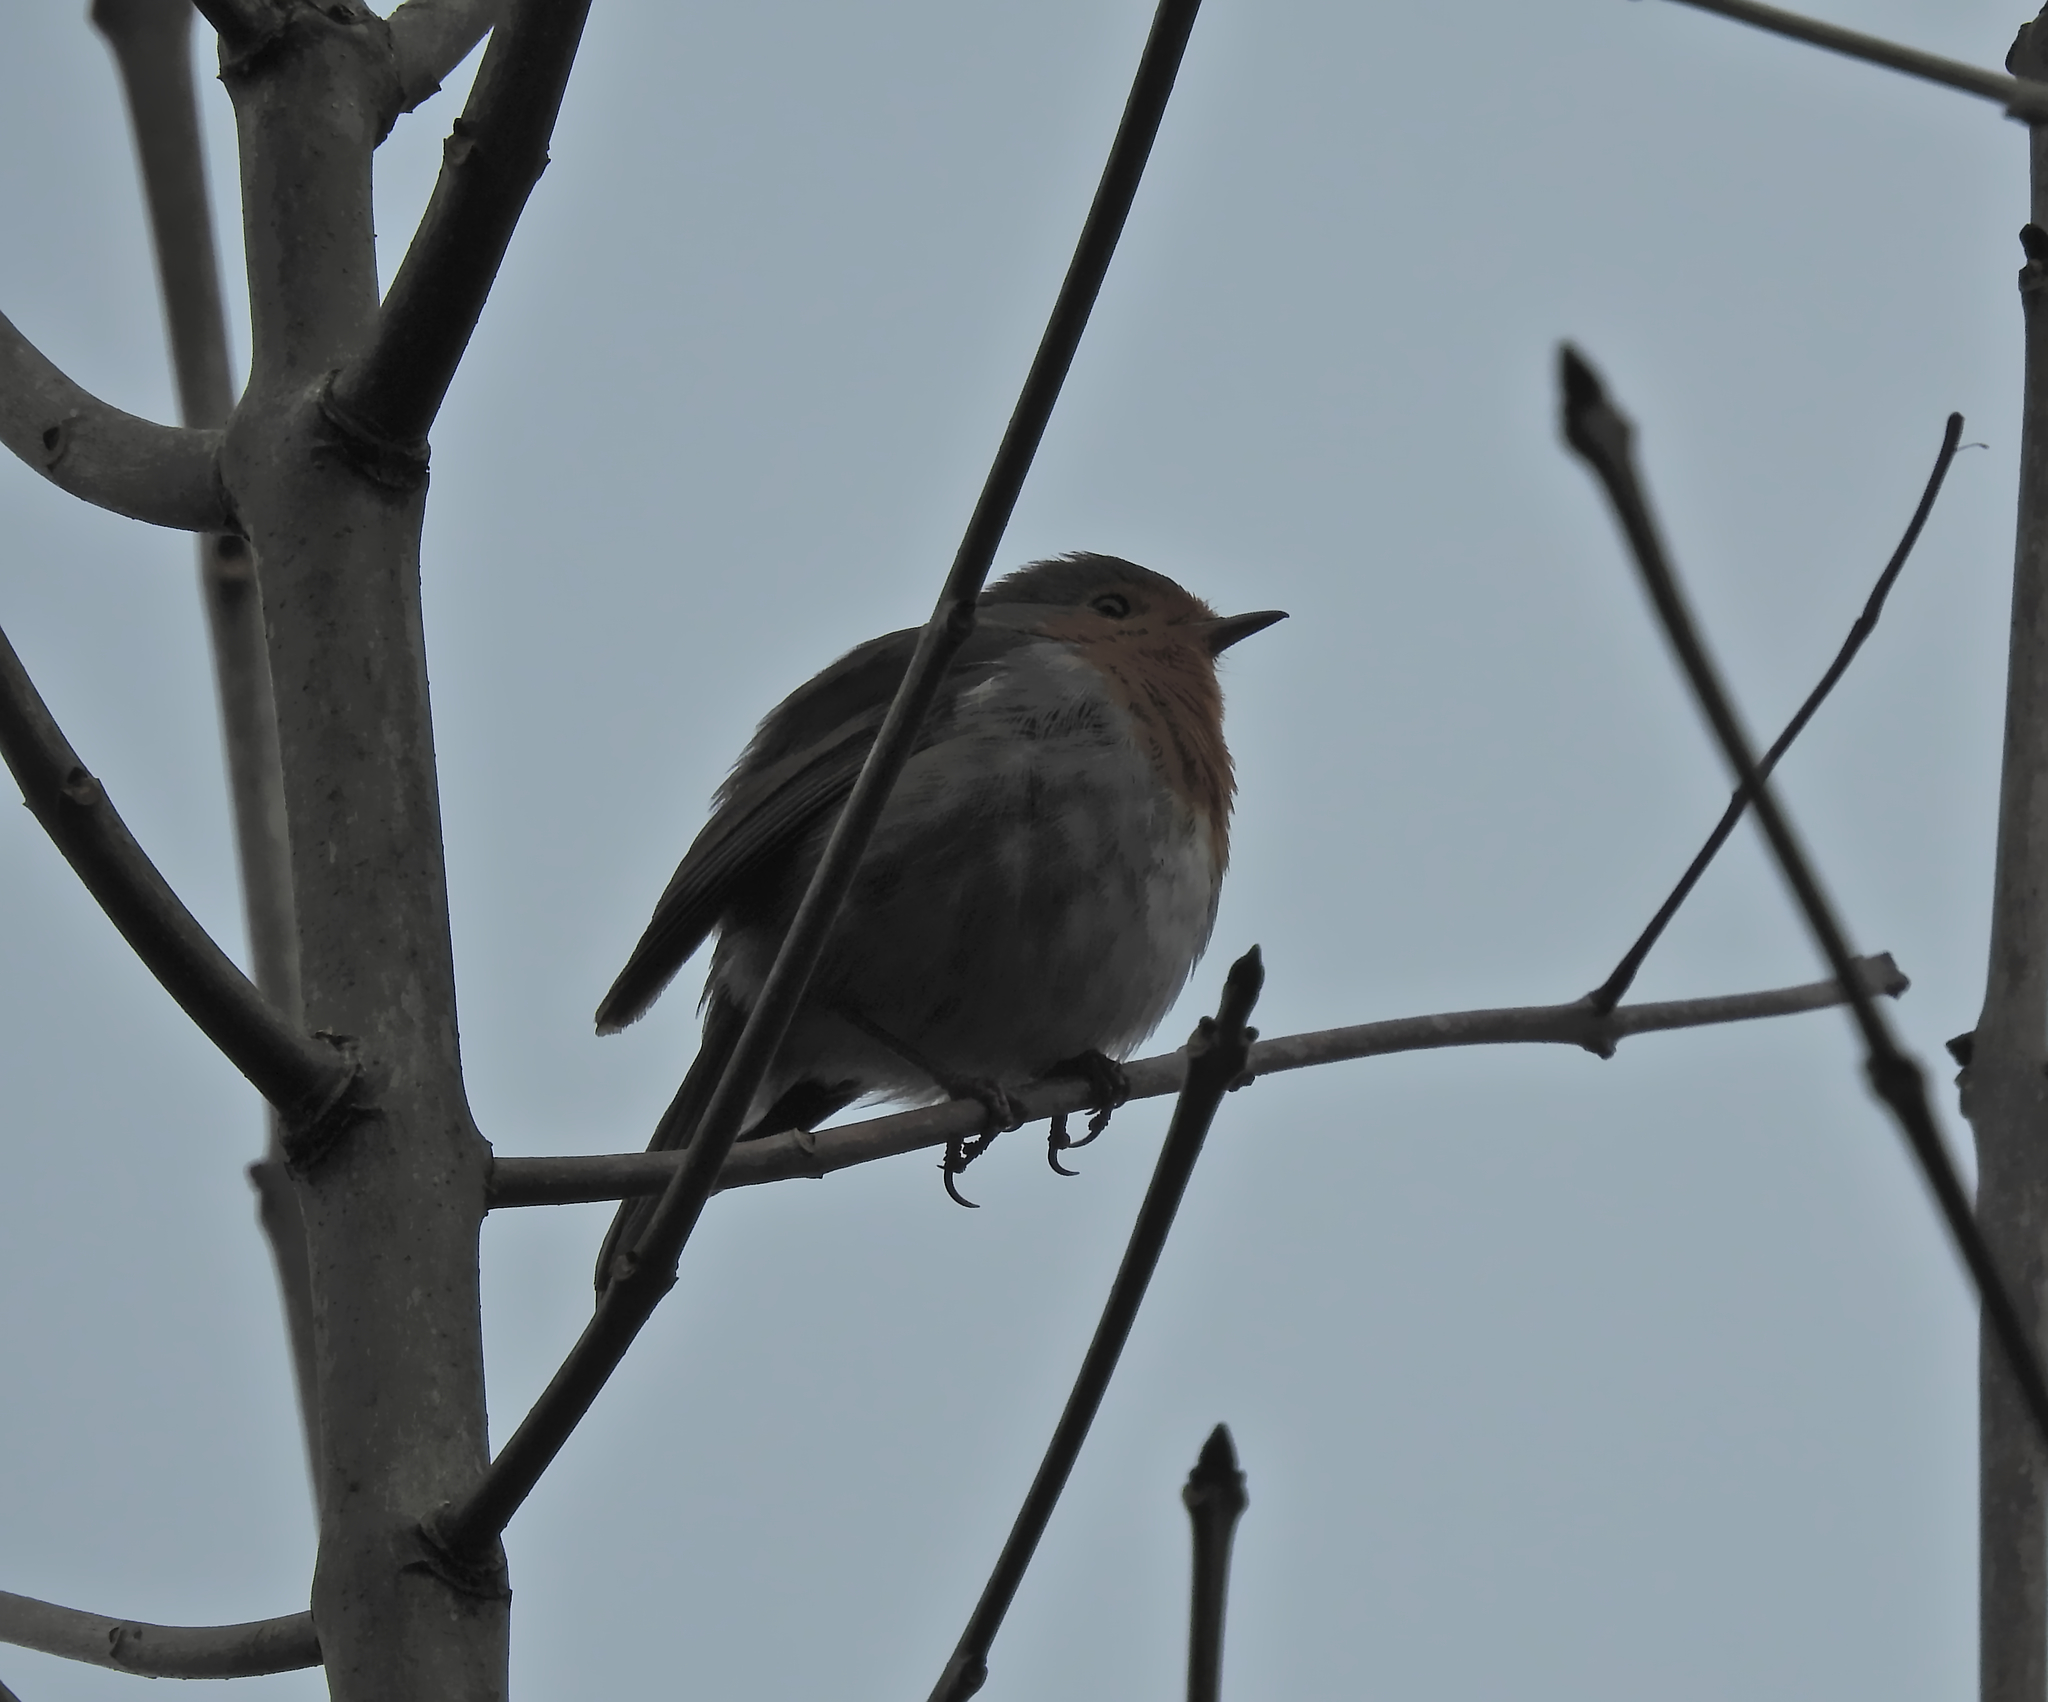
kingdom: Animalia
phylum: Chordata
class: Aves
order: Passeriformes
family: Muscicapidae
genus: Erithacus
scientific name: Erithacus rubecula
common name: European robin
